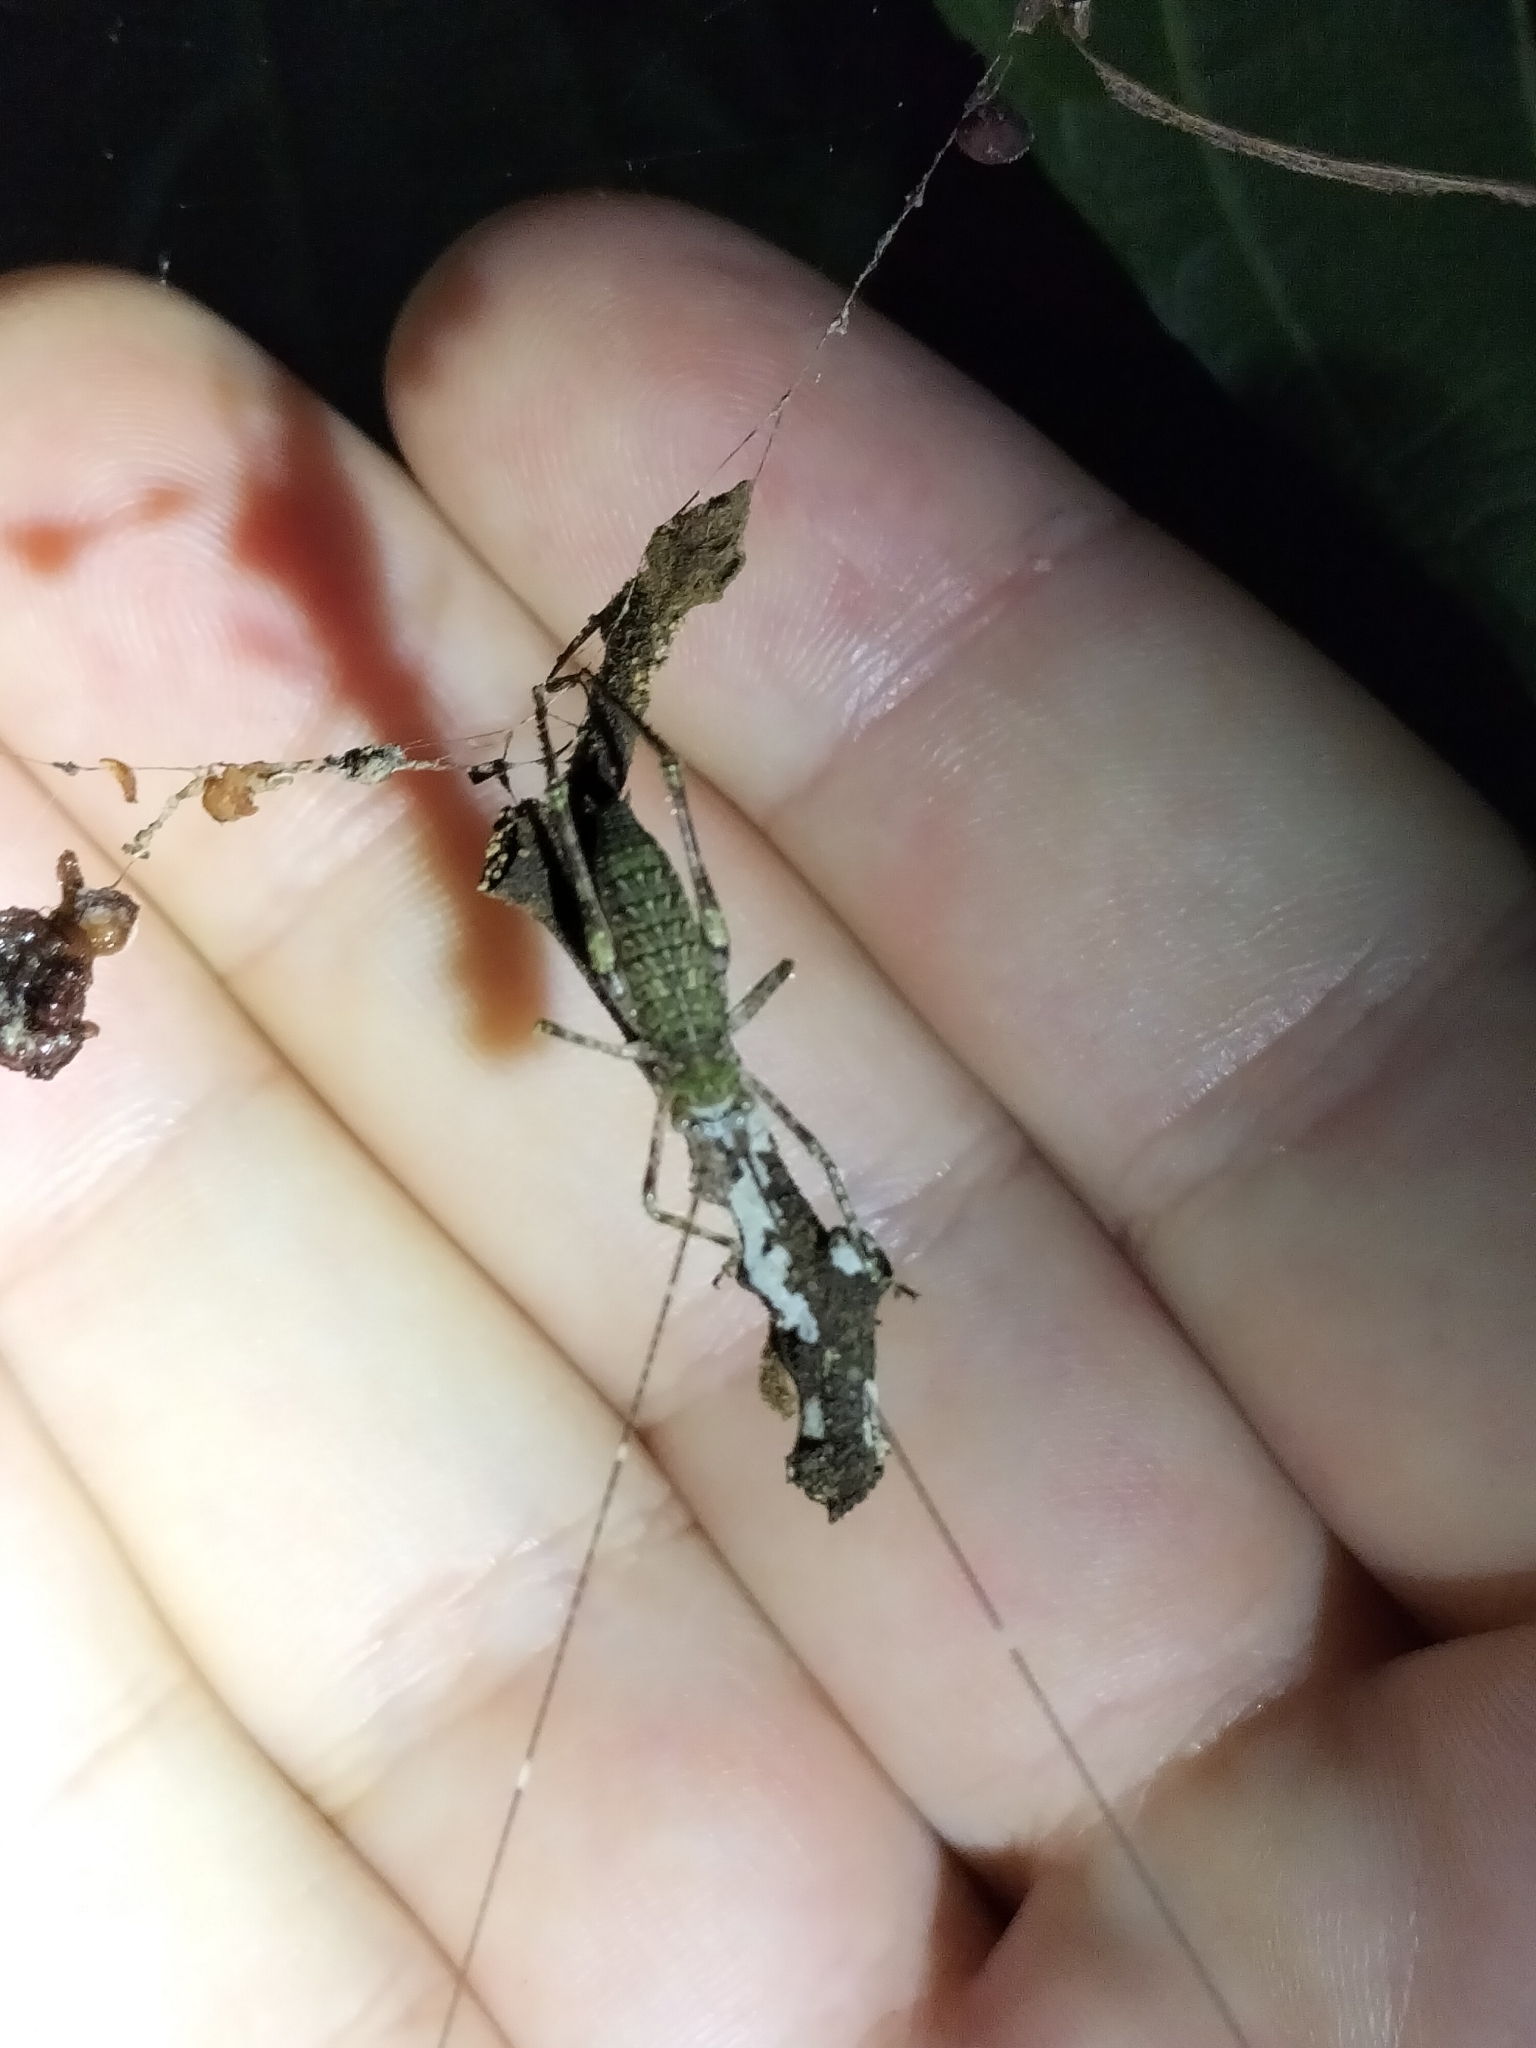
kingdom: Animalia
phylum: Arthropoda
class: Insecta
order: Orthoptera
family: Tettigoniidae
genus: Phricta
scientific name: Phricta spinosa
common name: Giant spiny forest katydid
